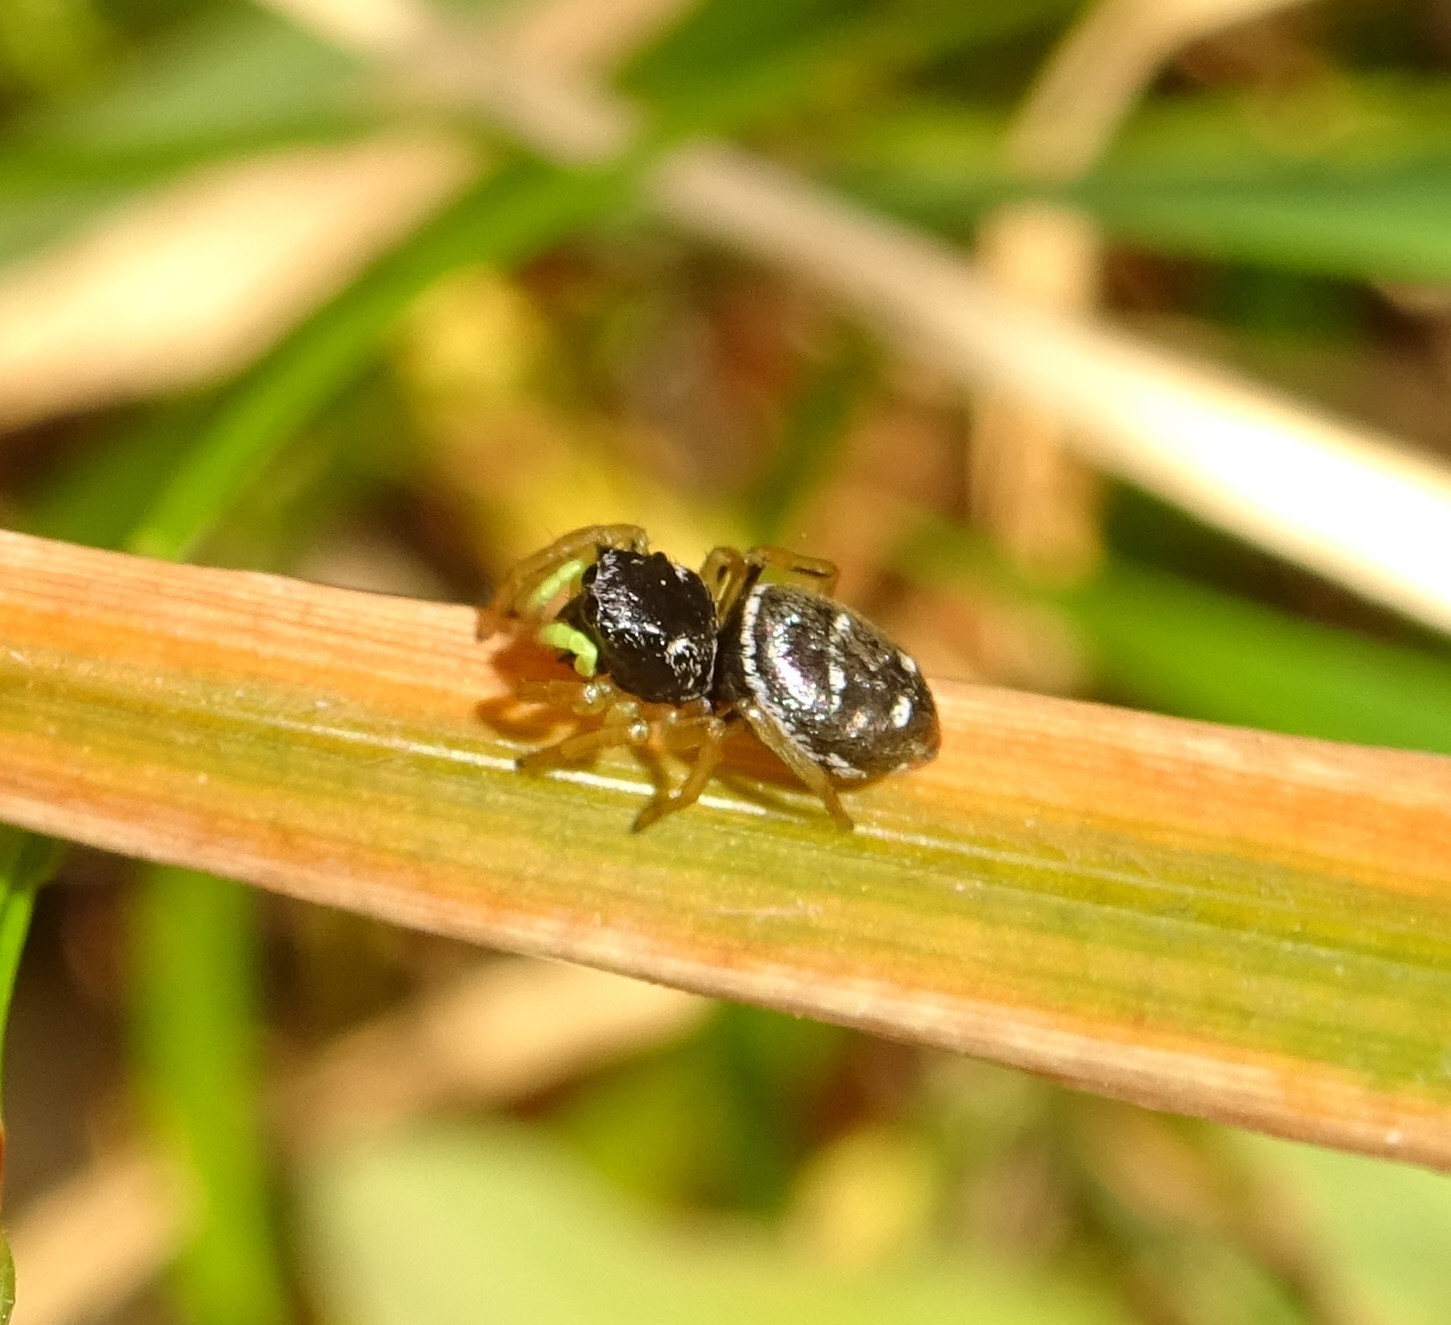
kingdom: Animalia
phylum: Arthropoda
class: Arachnida
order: Araneae
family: Salticidae
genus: Heliophanus
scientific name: Heliophanus cupreus
